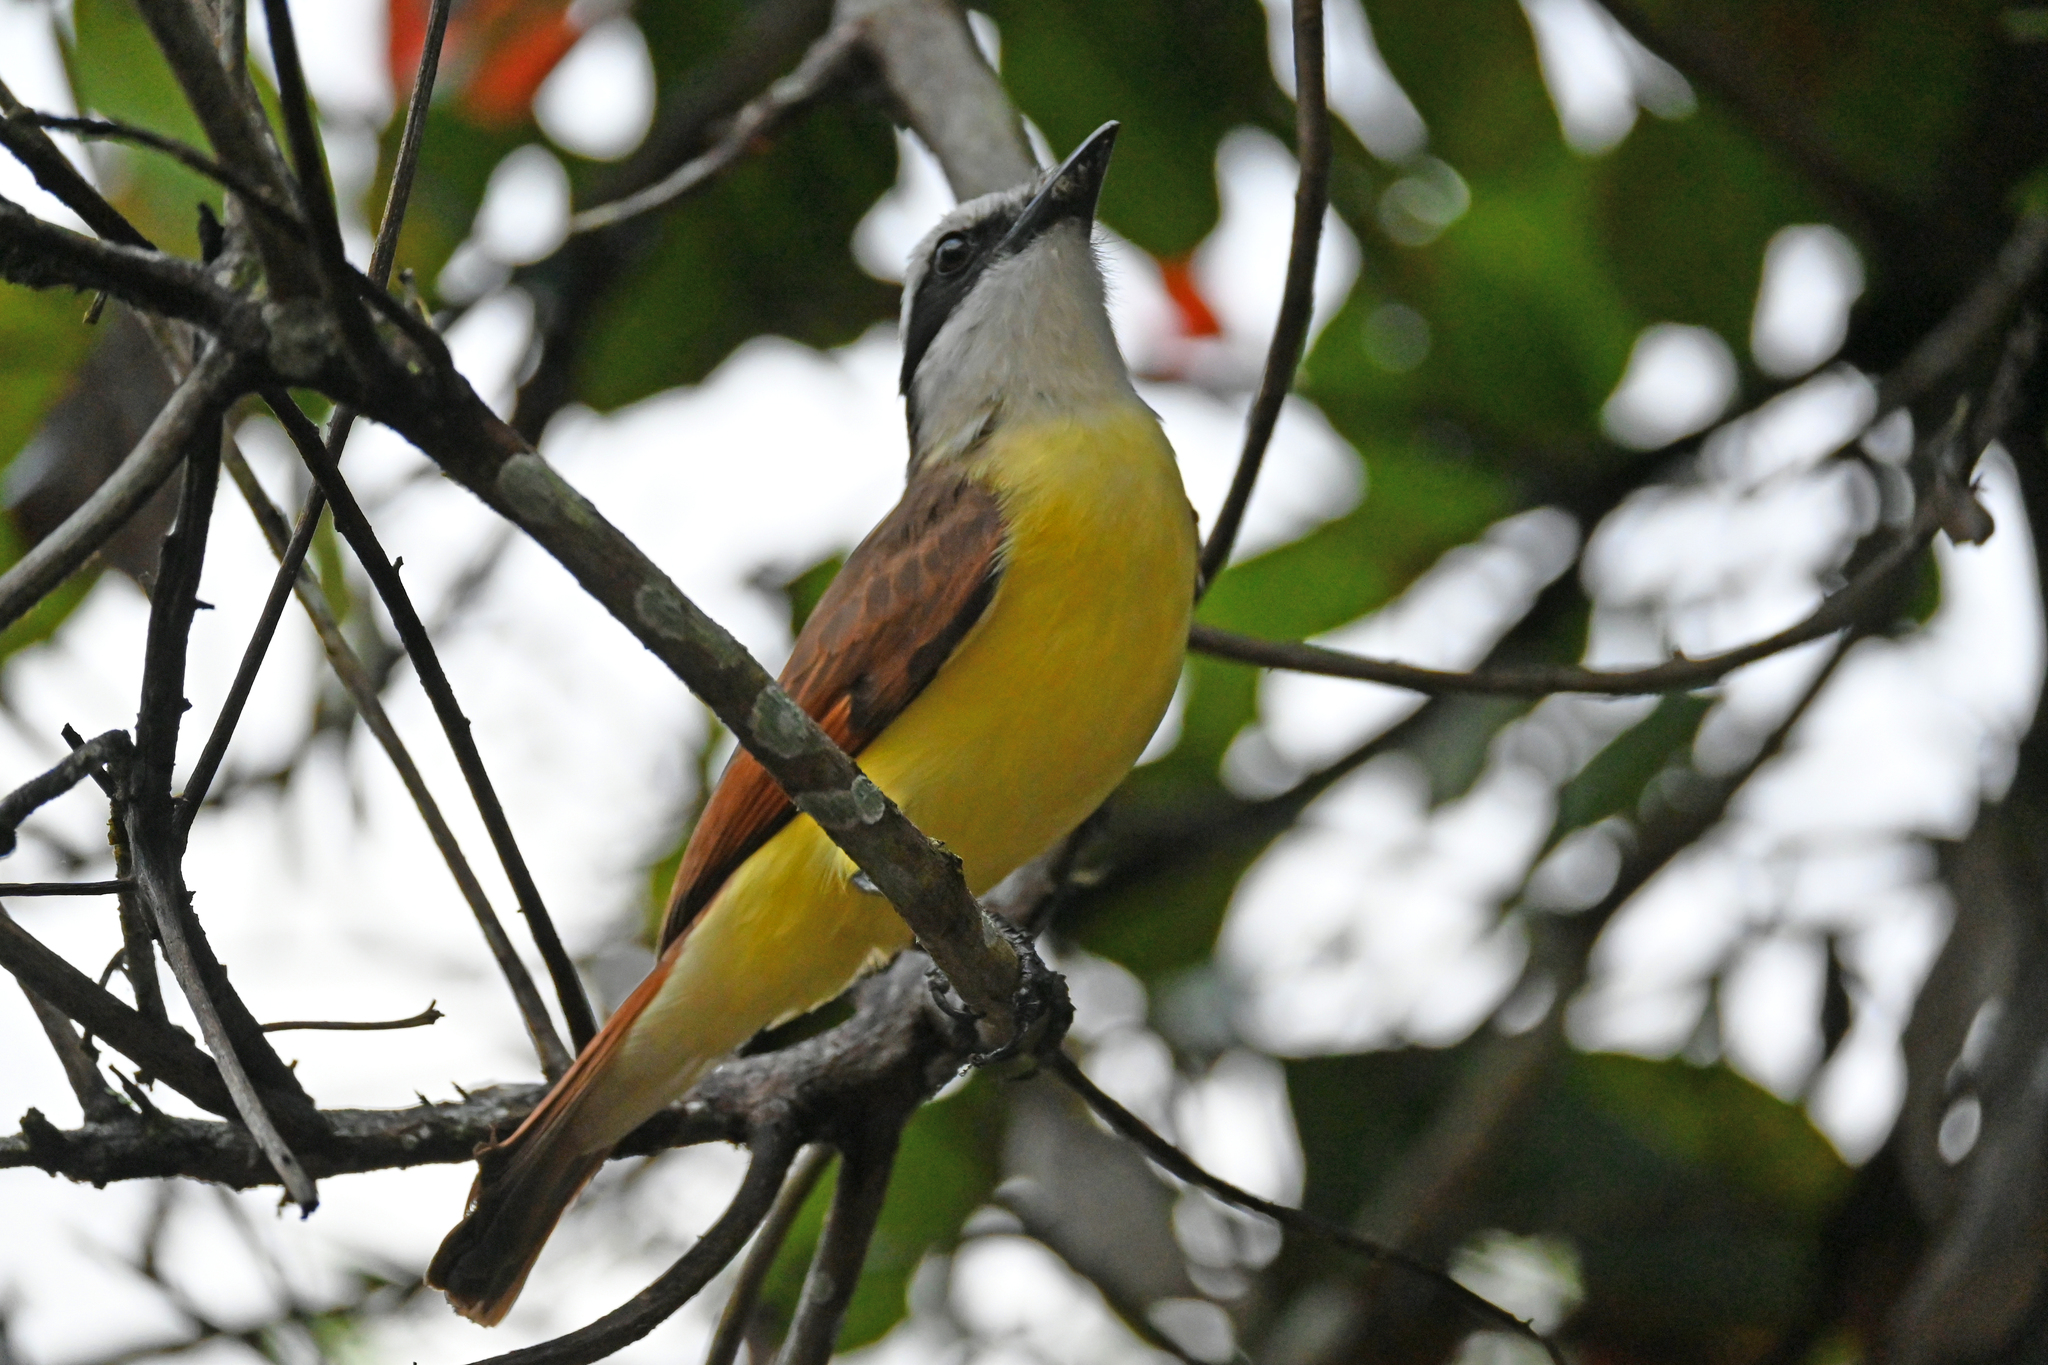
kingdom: Animalia
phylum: Chordata
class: Aves
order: Passeriformes
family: Tyrannidae
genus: Pitangus
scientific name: Pitangus sulphuratus
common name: Great kiskadee
